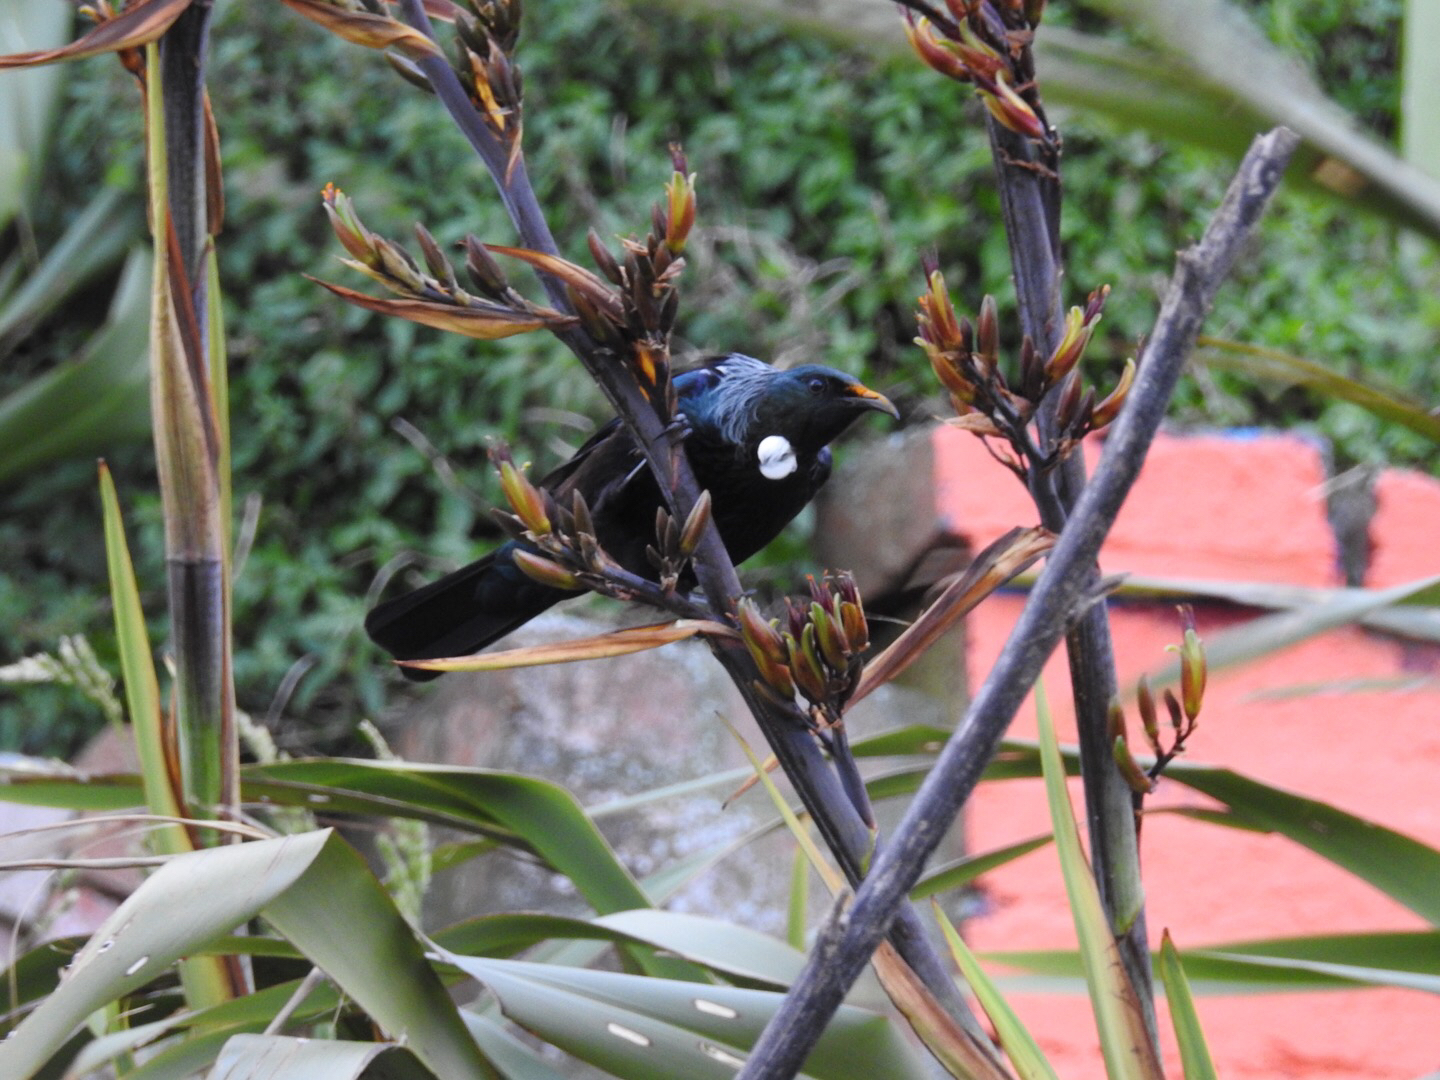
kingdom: Animalia
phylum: Chordata
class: Aves
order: Passeriformes
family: Meliphagidae
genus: Prosthemadera
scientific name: Prosthemadera novaeseelandiae
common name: Tui
